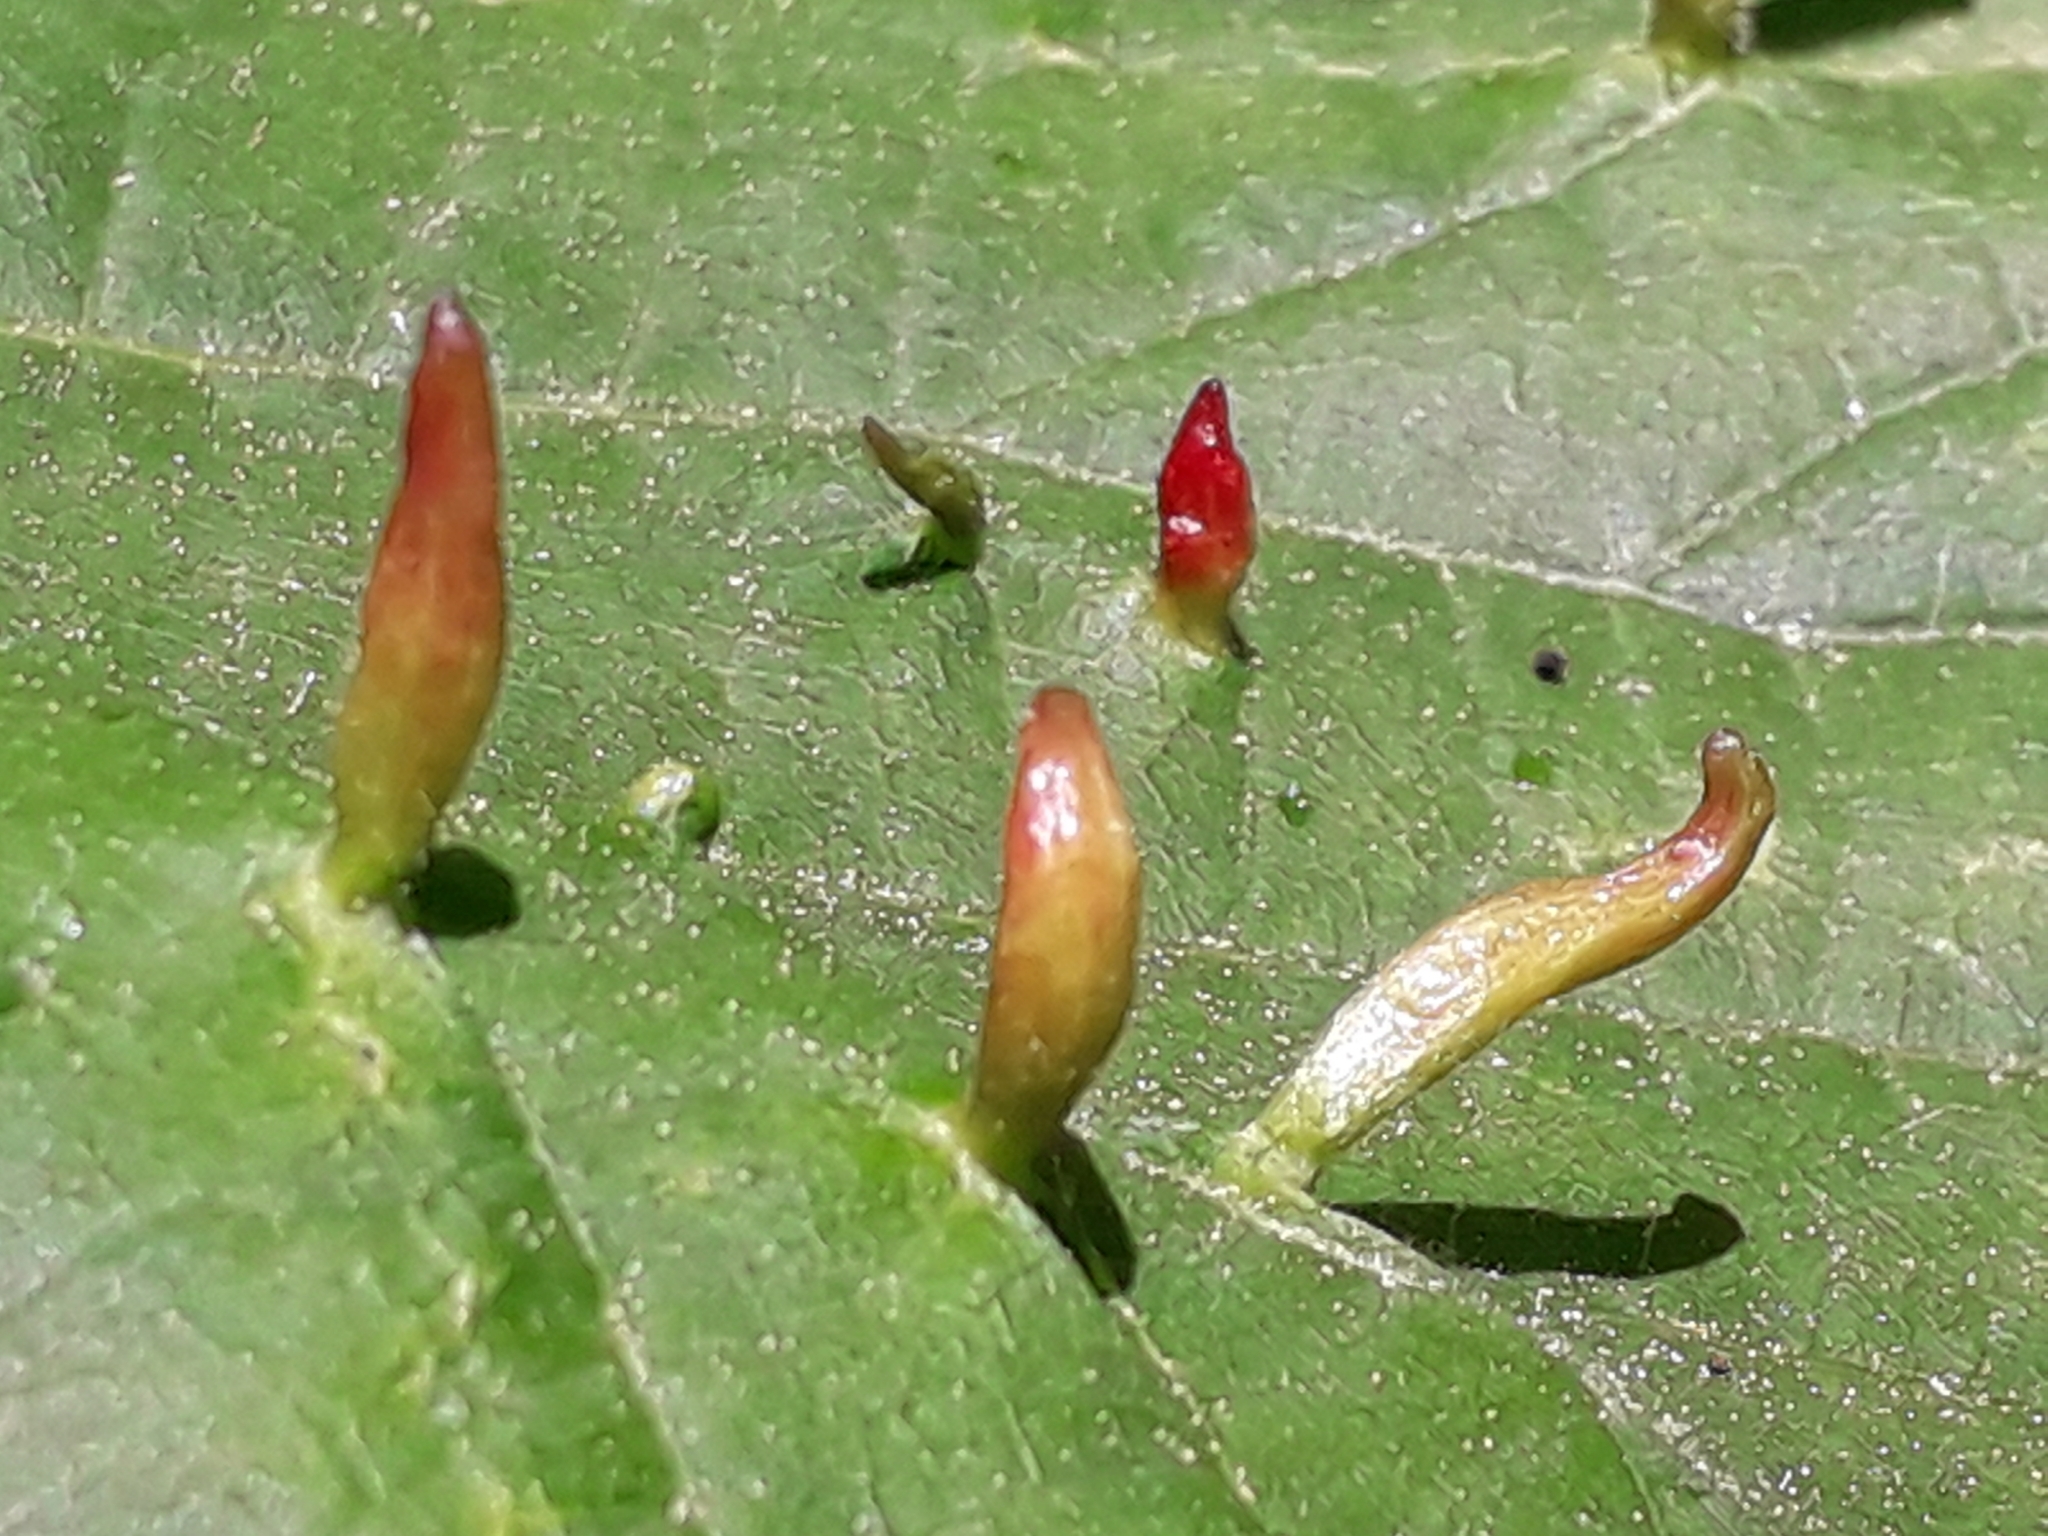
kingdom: Animalia
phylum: Arthropoda
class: Arachnida
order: Trombidiformes
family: Eriophyidae
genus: Eriophyes
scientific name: Eriophyes tiliae
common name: Red nail gall mite
